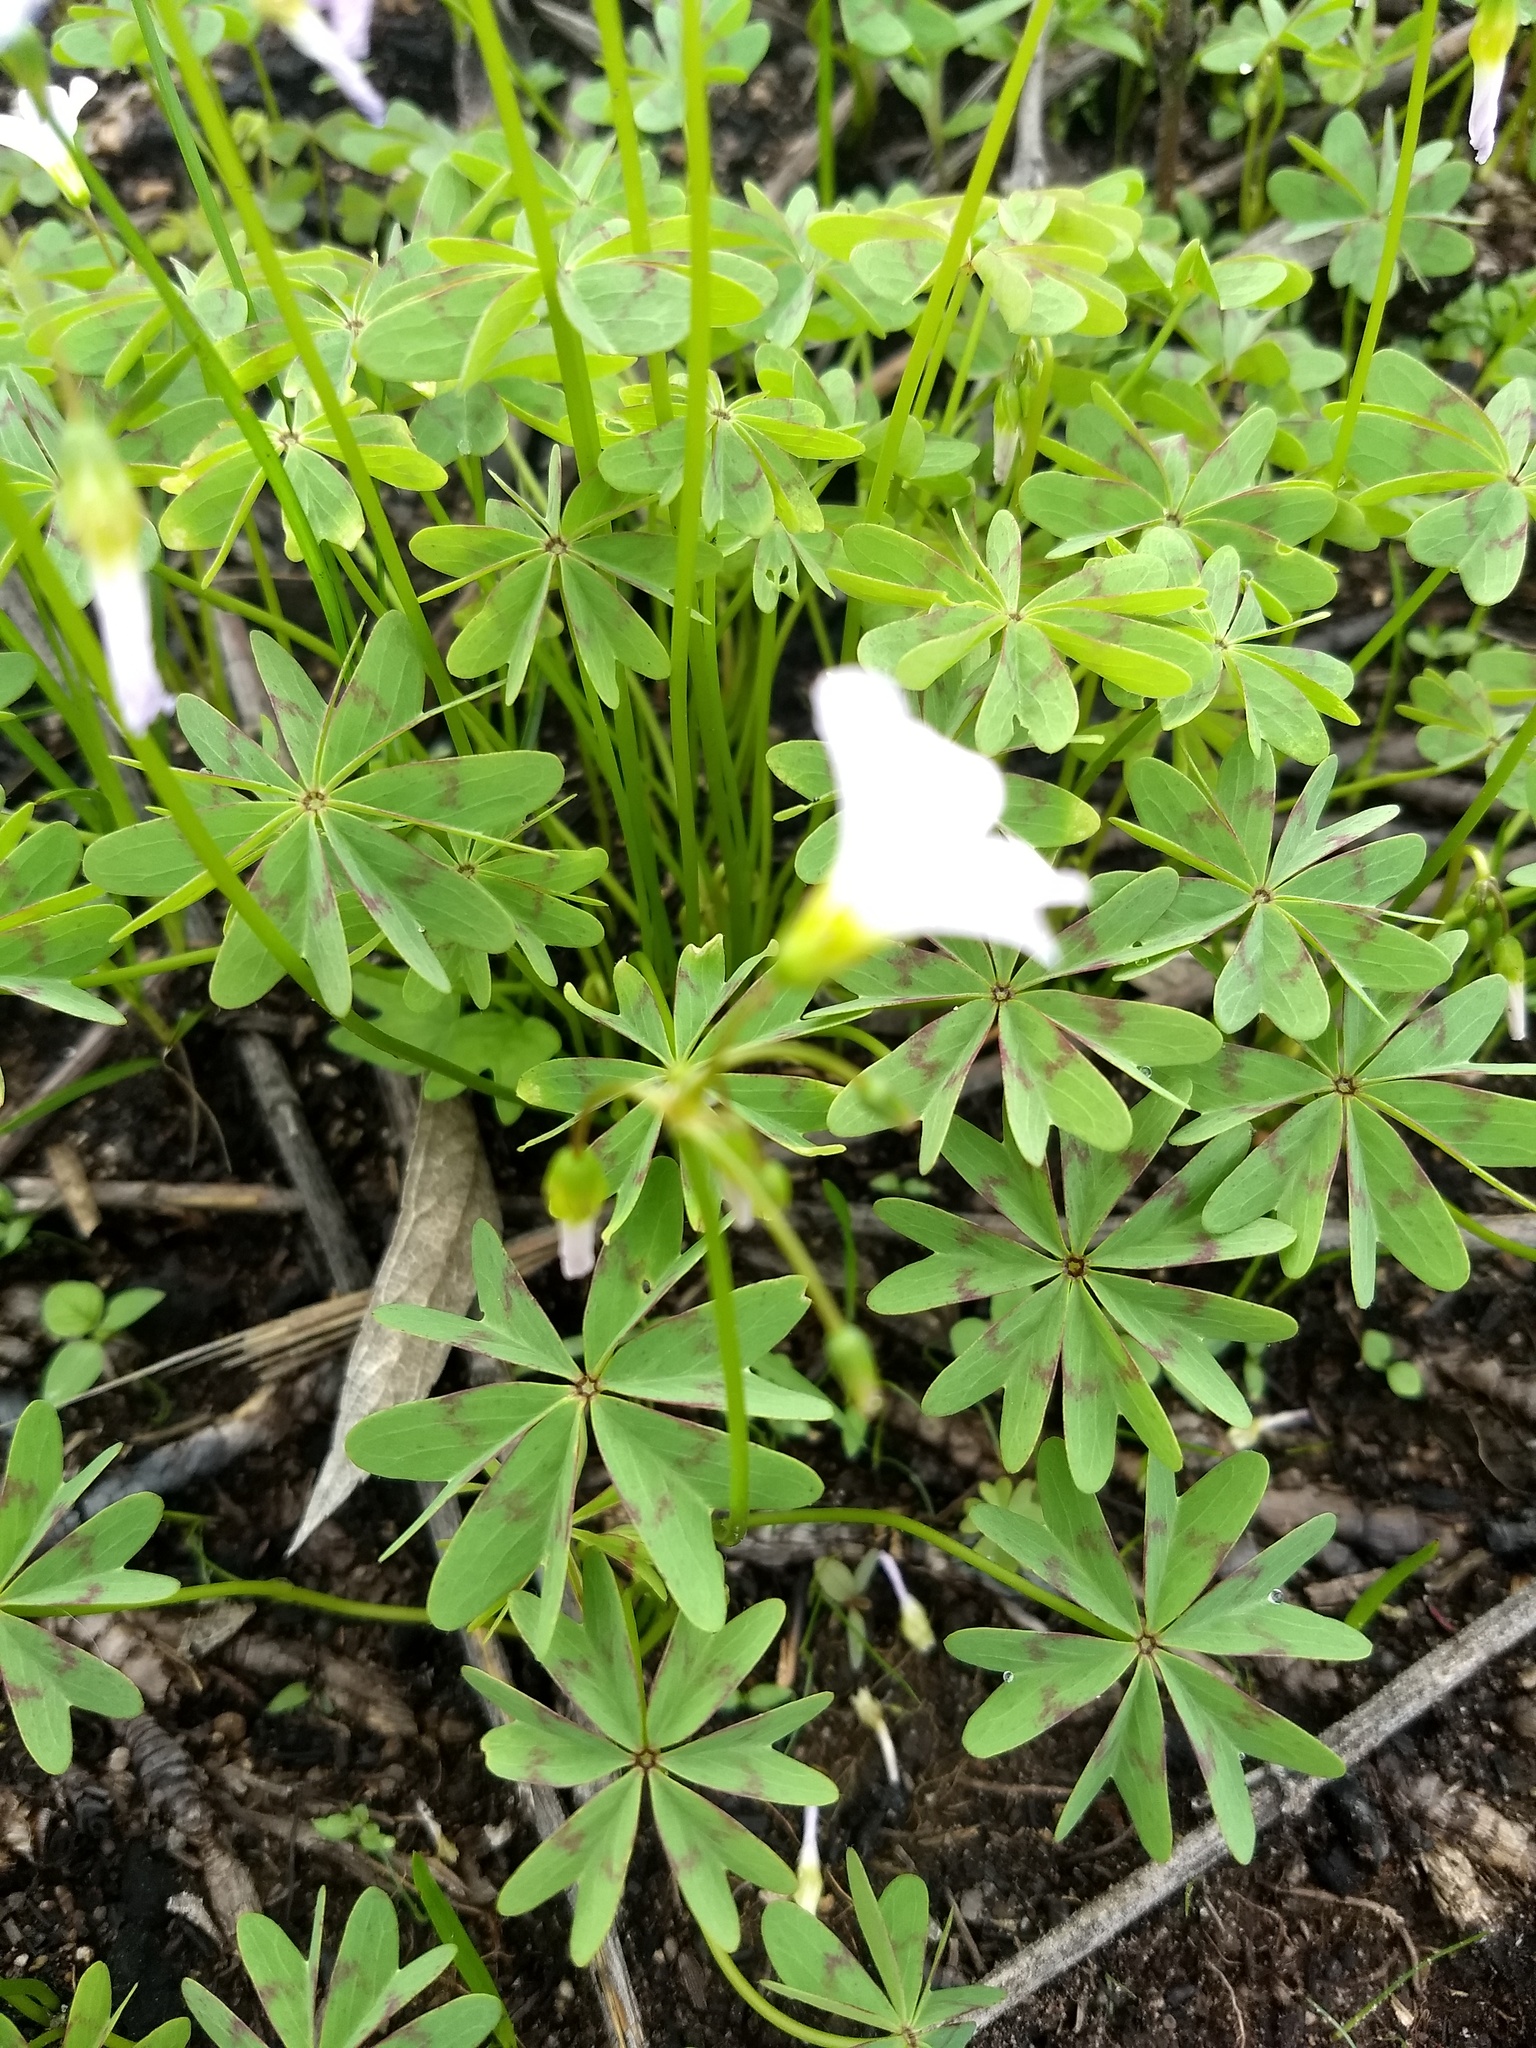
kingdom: Plantae
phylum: Tracheophyta
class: Magnoliopsida
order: Oxalidales
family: Oxalidaceae
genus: Oxalis
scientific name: Oxalis divergens
